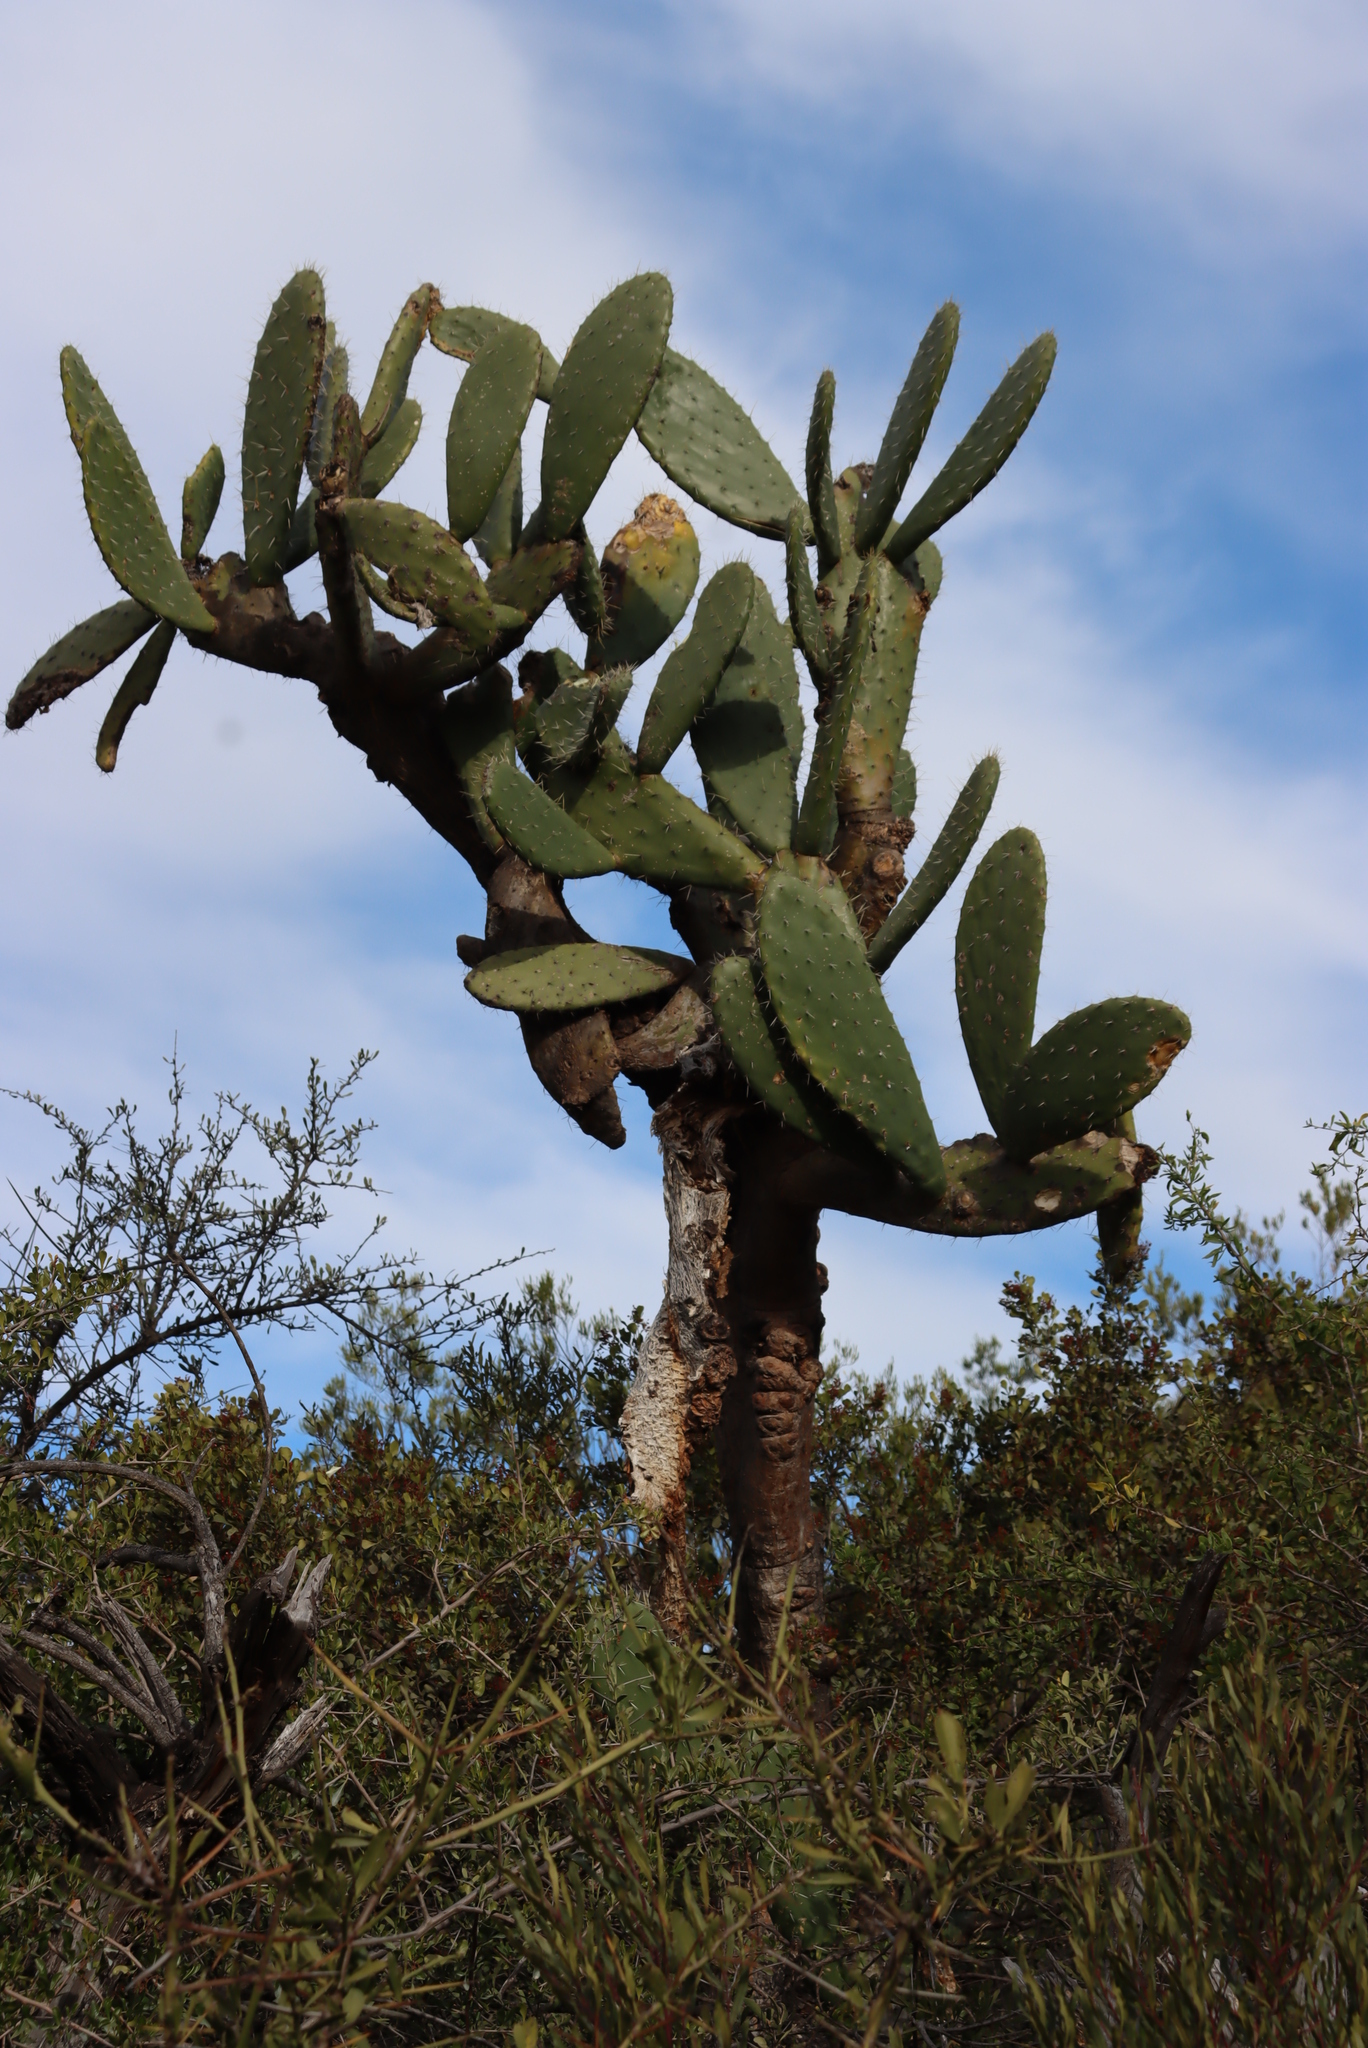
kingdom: Plantae
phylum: Tracheophyta
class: Magnoliopsida
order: Caryophyllales
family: Cactaceae
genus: Opuntia
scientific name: Opuntia ficus-indica
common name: Barbary fig
